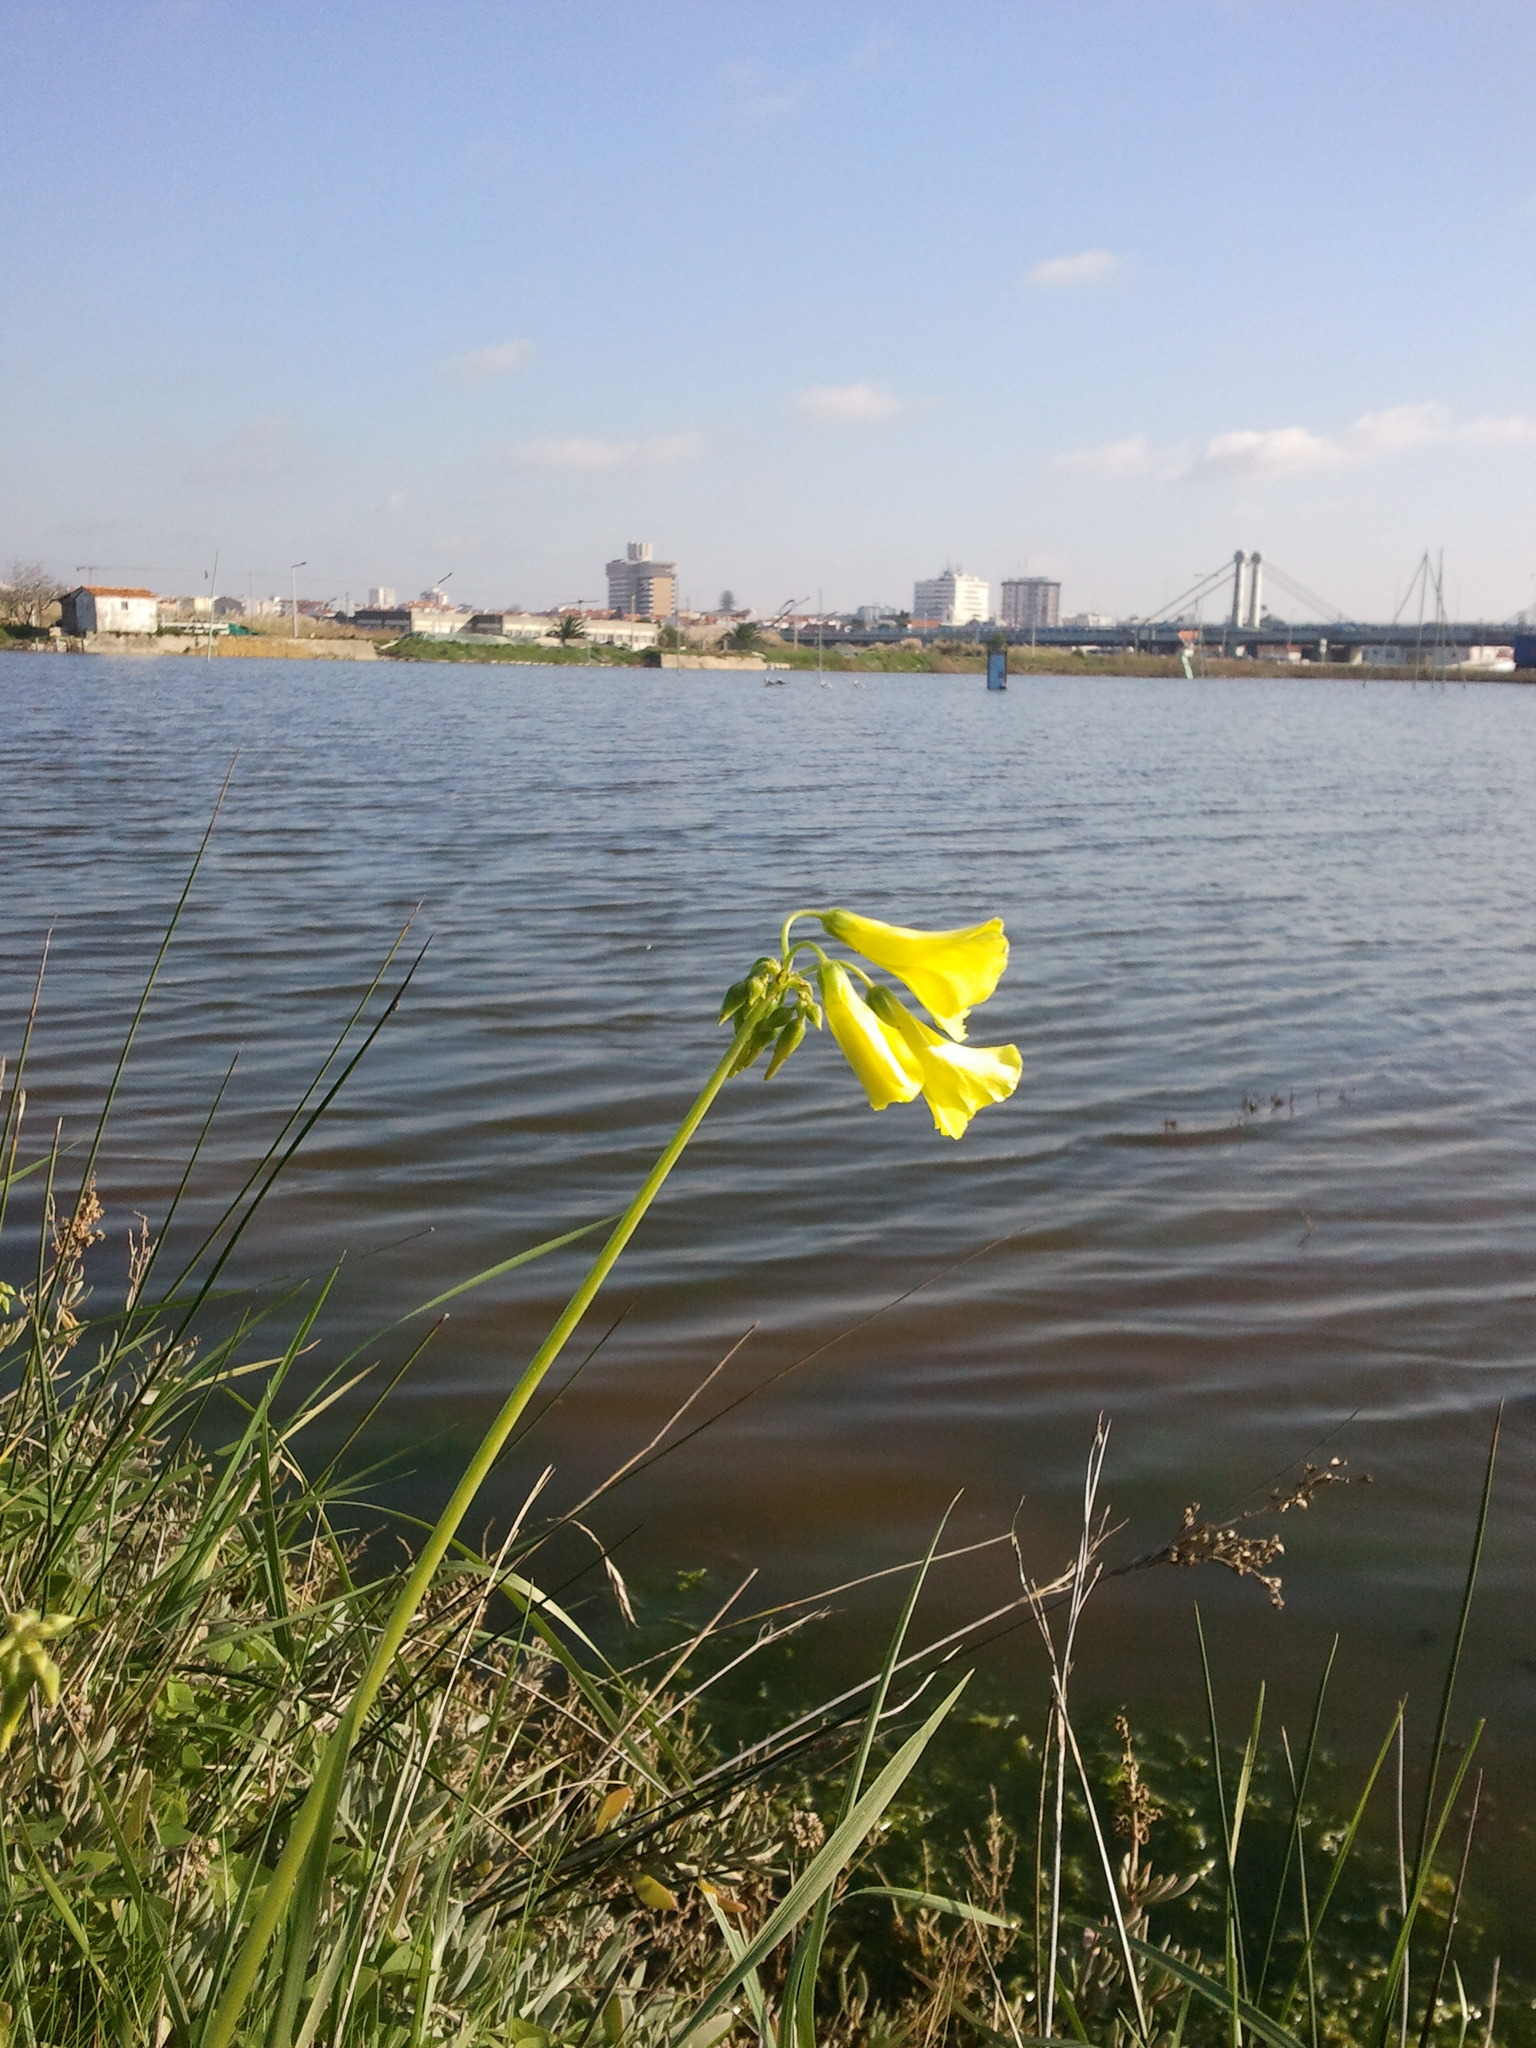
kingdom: Plantae
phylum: Tracheophyta
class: Magnoliopsida
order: Oxalidales
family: Oxalidaceae
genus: Oxalis
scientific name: Oxalis pes-caprae
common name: Bermuda-buttercup
